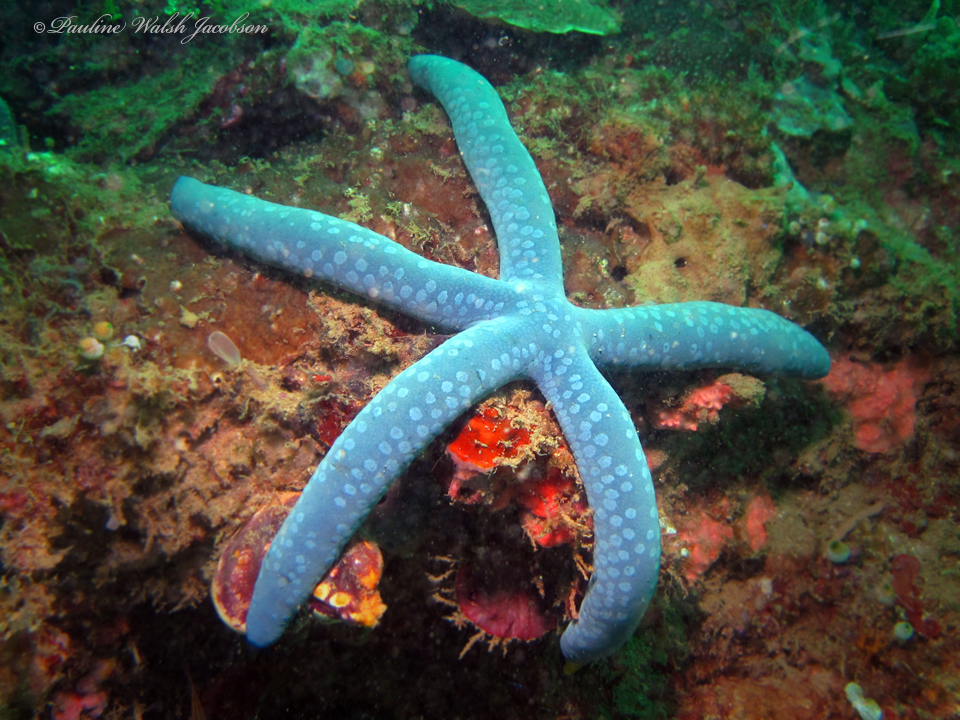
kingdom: Animalia
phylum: Echinodermata
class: Asteroidea
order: Valvatida
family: Ophidiasteridae
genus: Linckia
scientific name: Linckia laevigata
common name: Azure sea star
